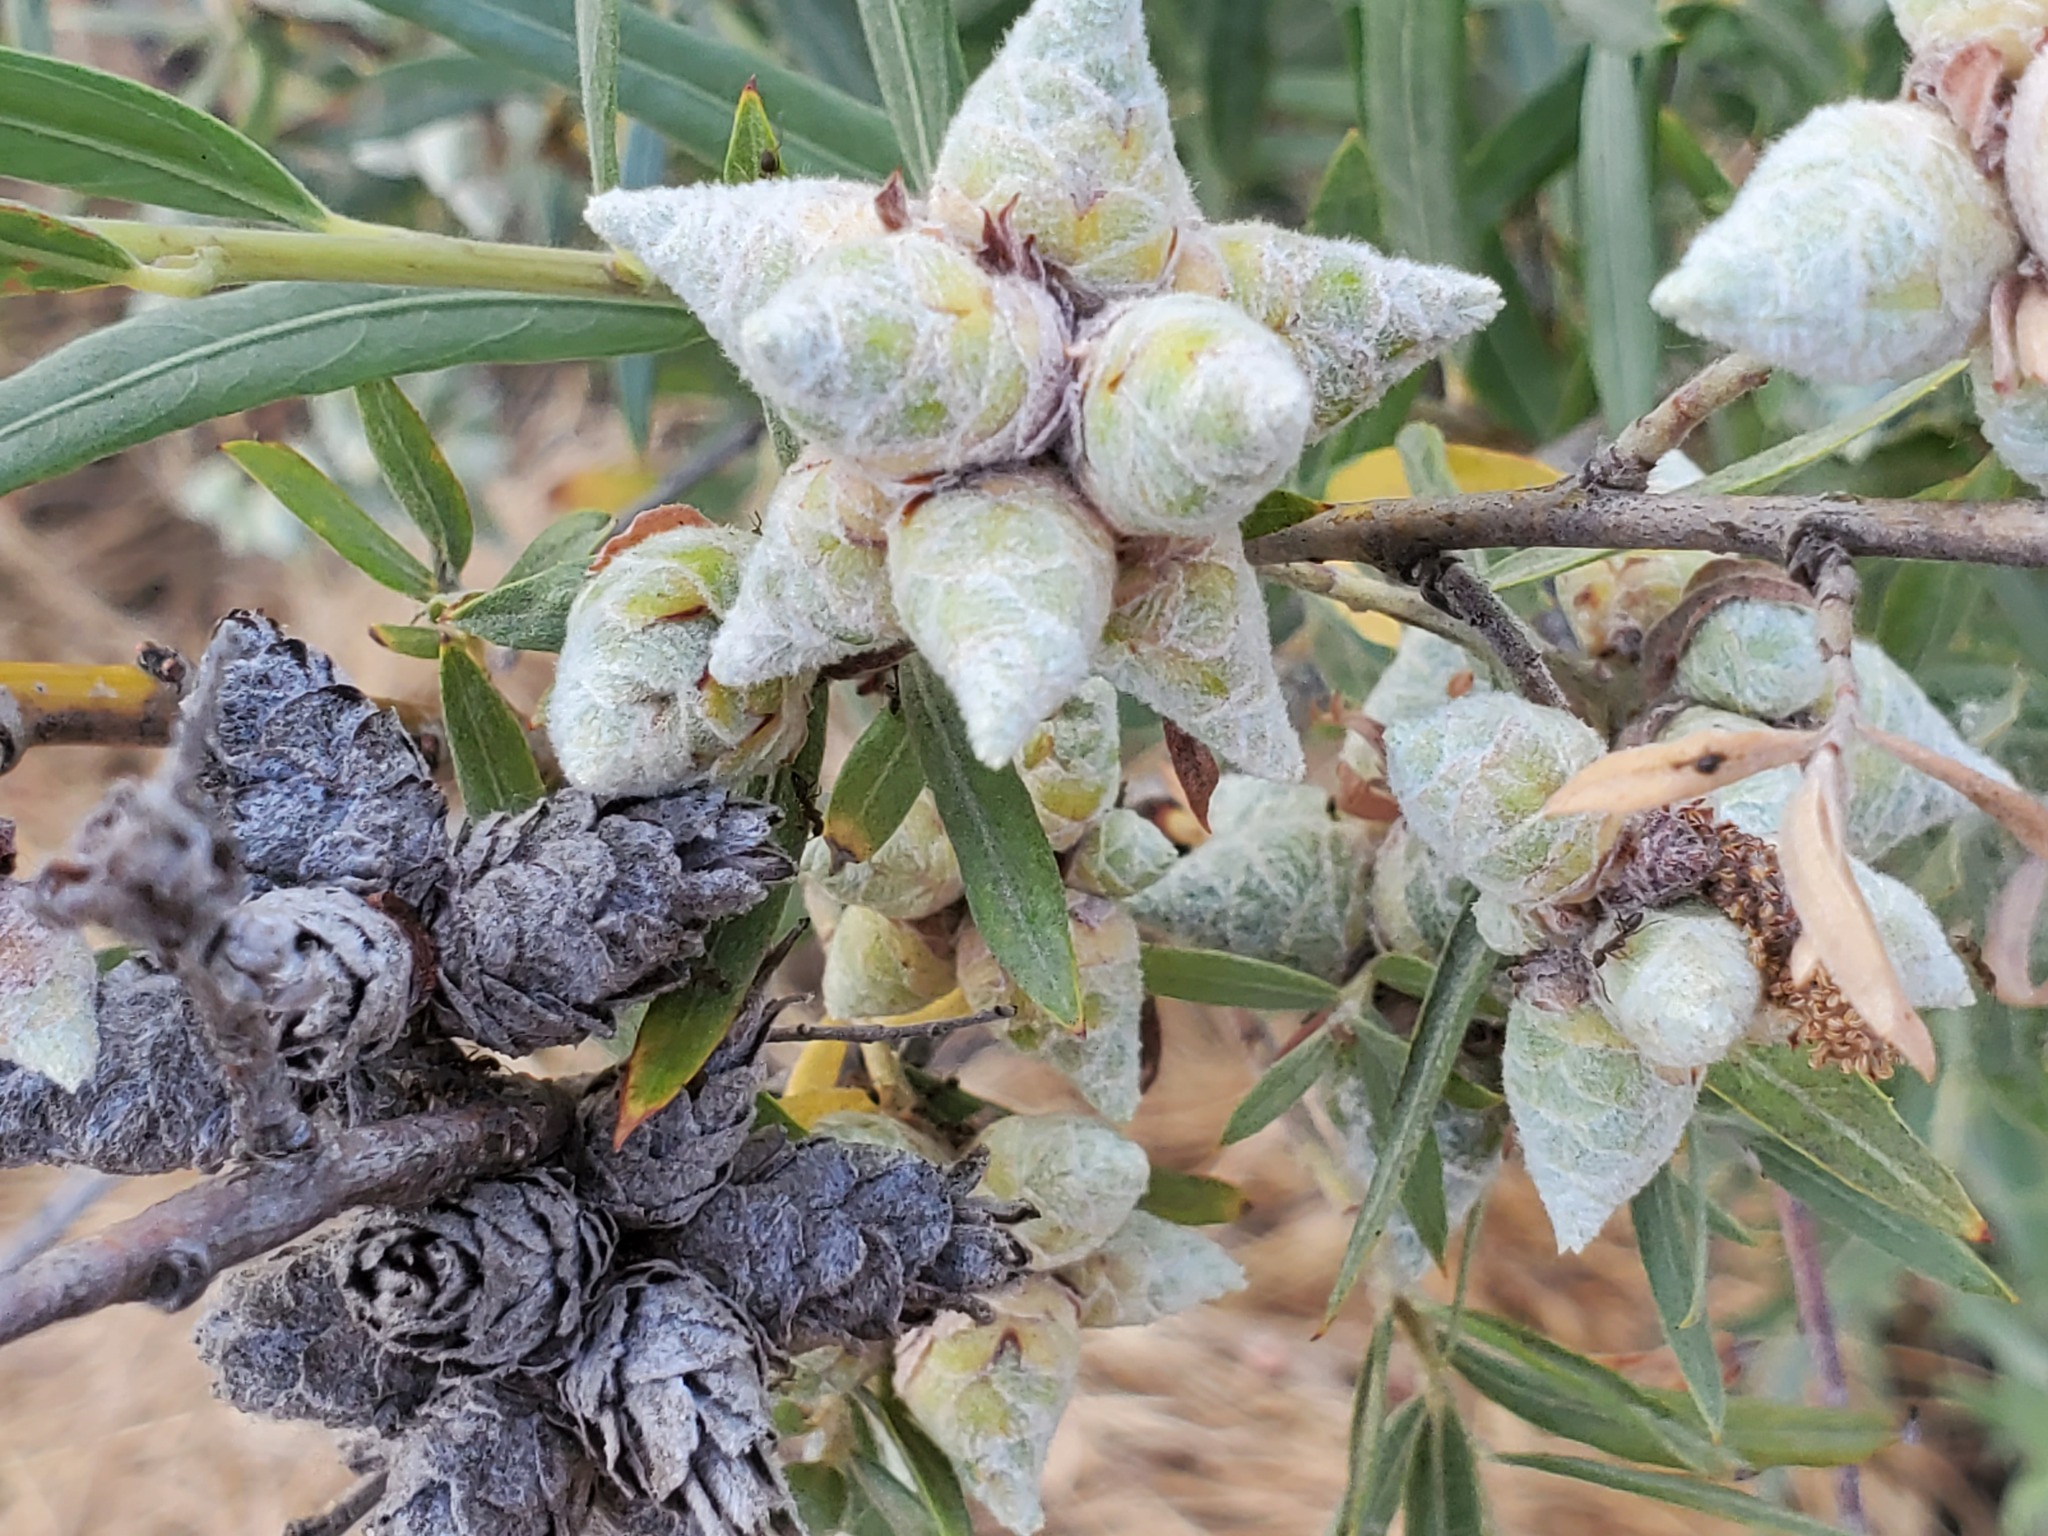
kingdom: Animalia
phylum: Arthropoda
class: Insecta
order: Diptera
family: Cecidomyiidae
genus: Rabdophaga
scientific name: Rabdophaga strobiloides
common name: Willow pinecone gall midge
